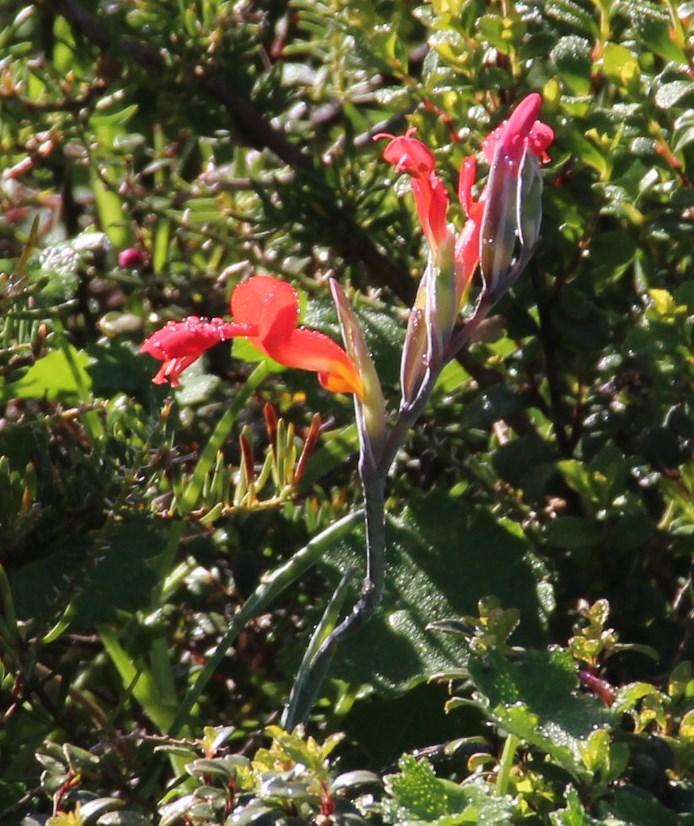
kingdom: Plantae
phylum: Tracheophyta
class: Liliopsida
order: Asparagales
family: Iridaceae
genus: Gladiolus
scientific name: Gladiolus cunonius
